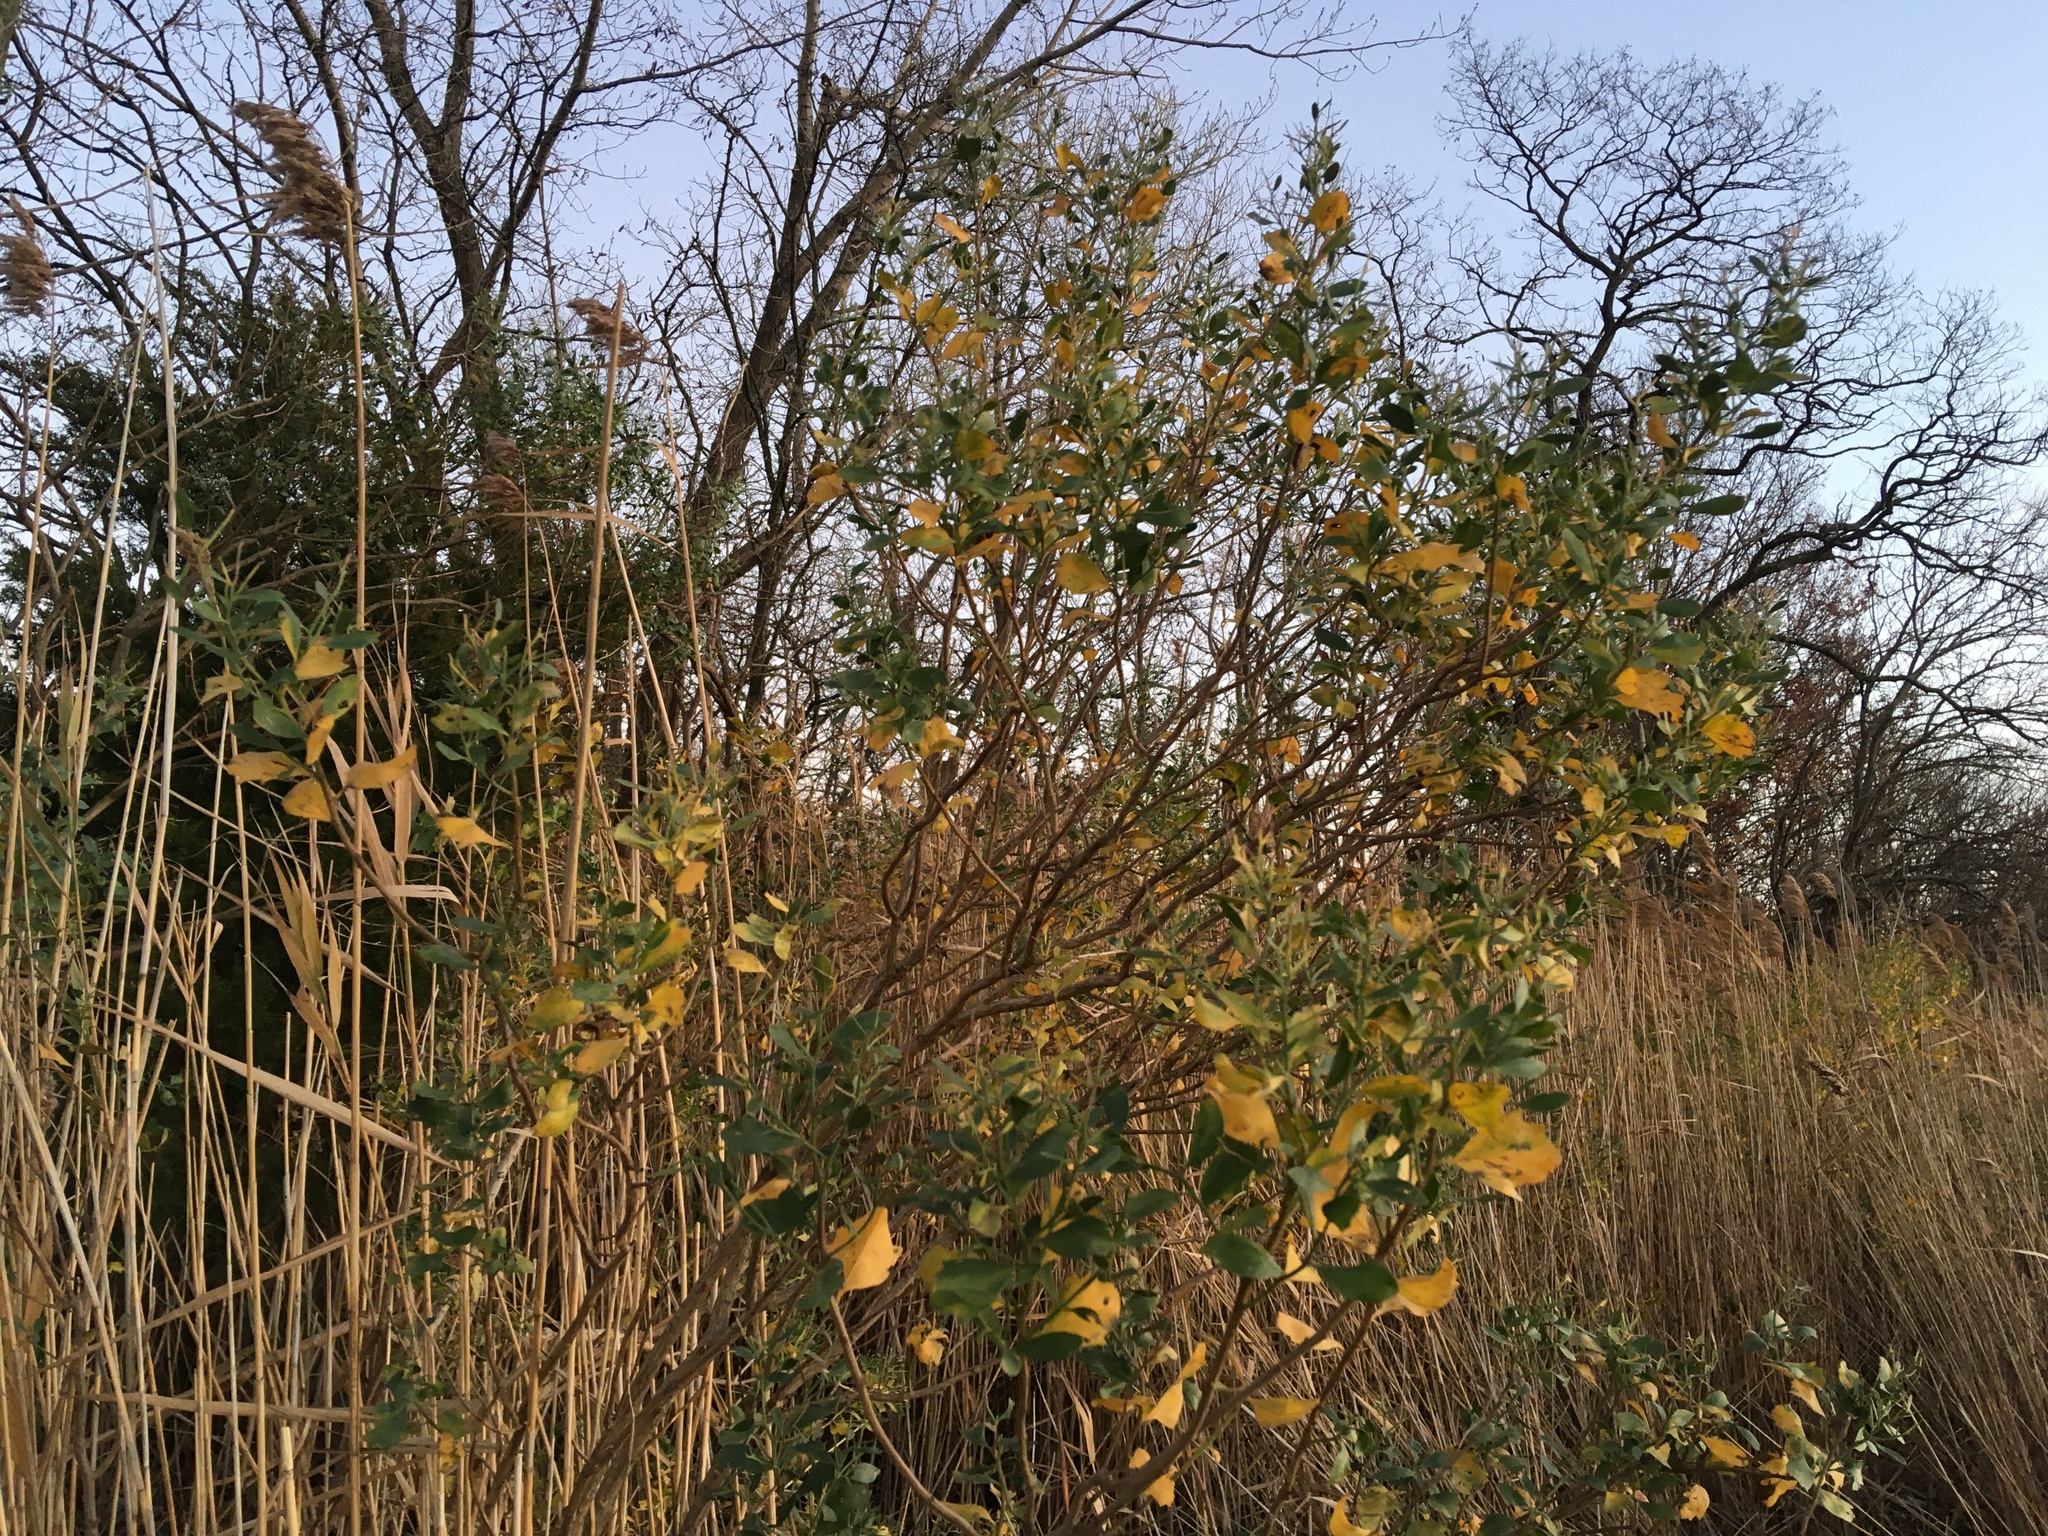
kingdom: Plantae
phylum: Tracheophyta
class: Magnoliopsida
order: Asterales
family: Asteraceae
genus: Baccharis
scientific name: Baccharis halimifolia
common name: Eastern baccharis
